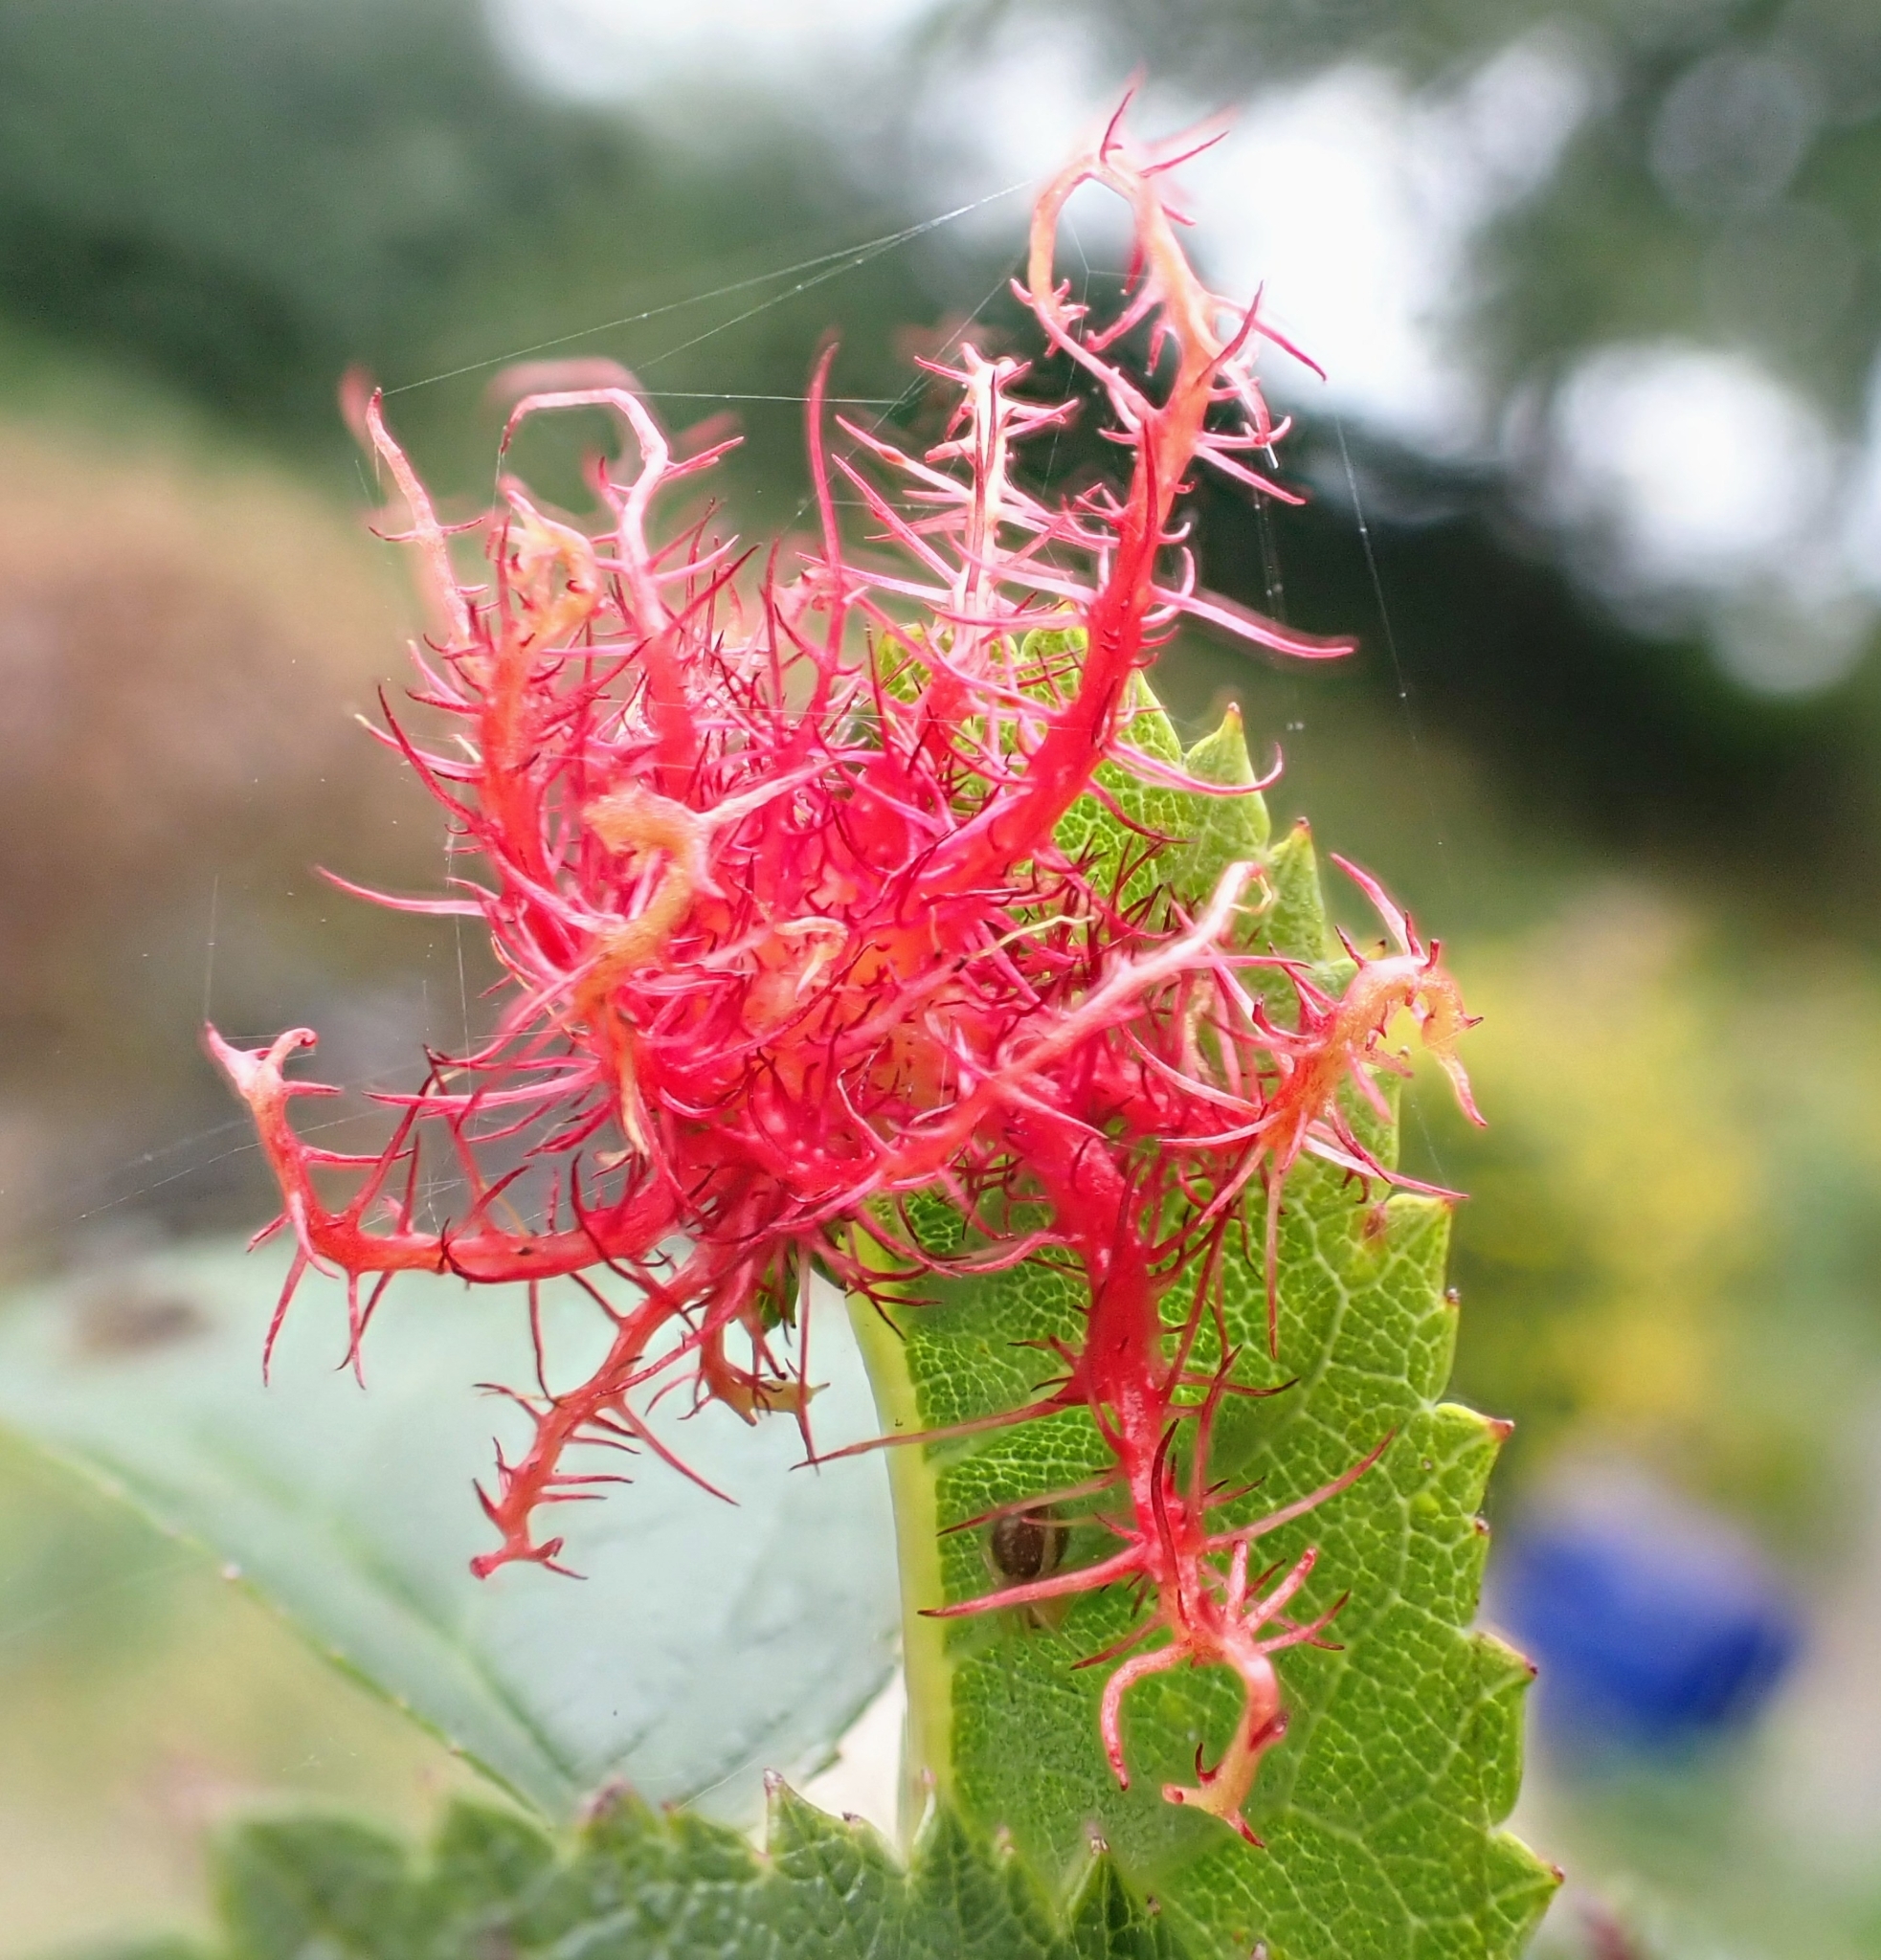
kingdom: Animalia
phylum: Arthropoda
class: Insecta
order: Hymenoptera
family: Cynipidae
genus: Diplolepis
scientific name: Diplolepis rosae
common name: Bedeguar gall
